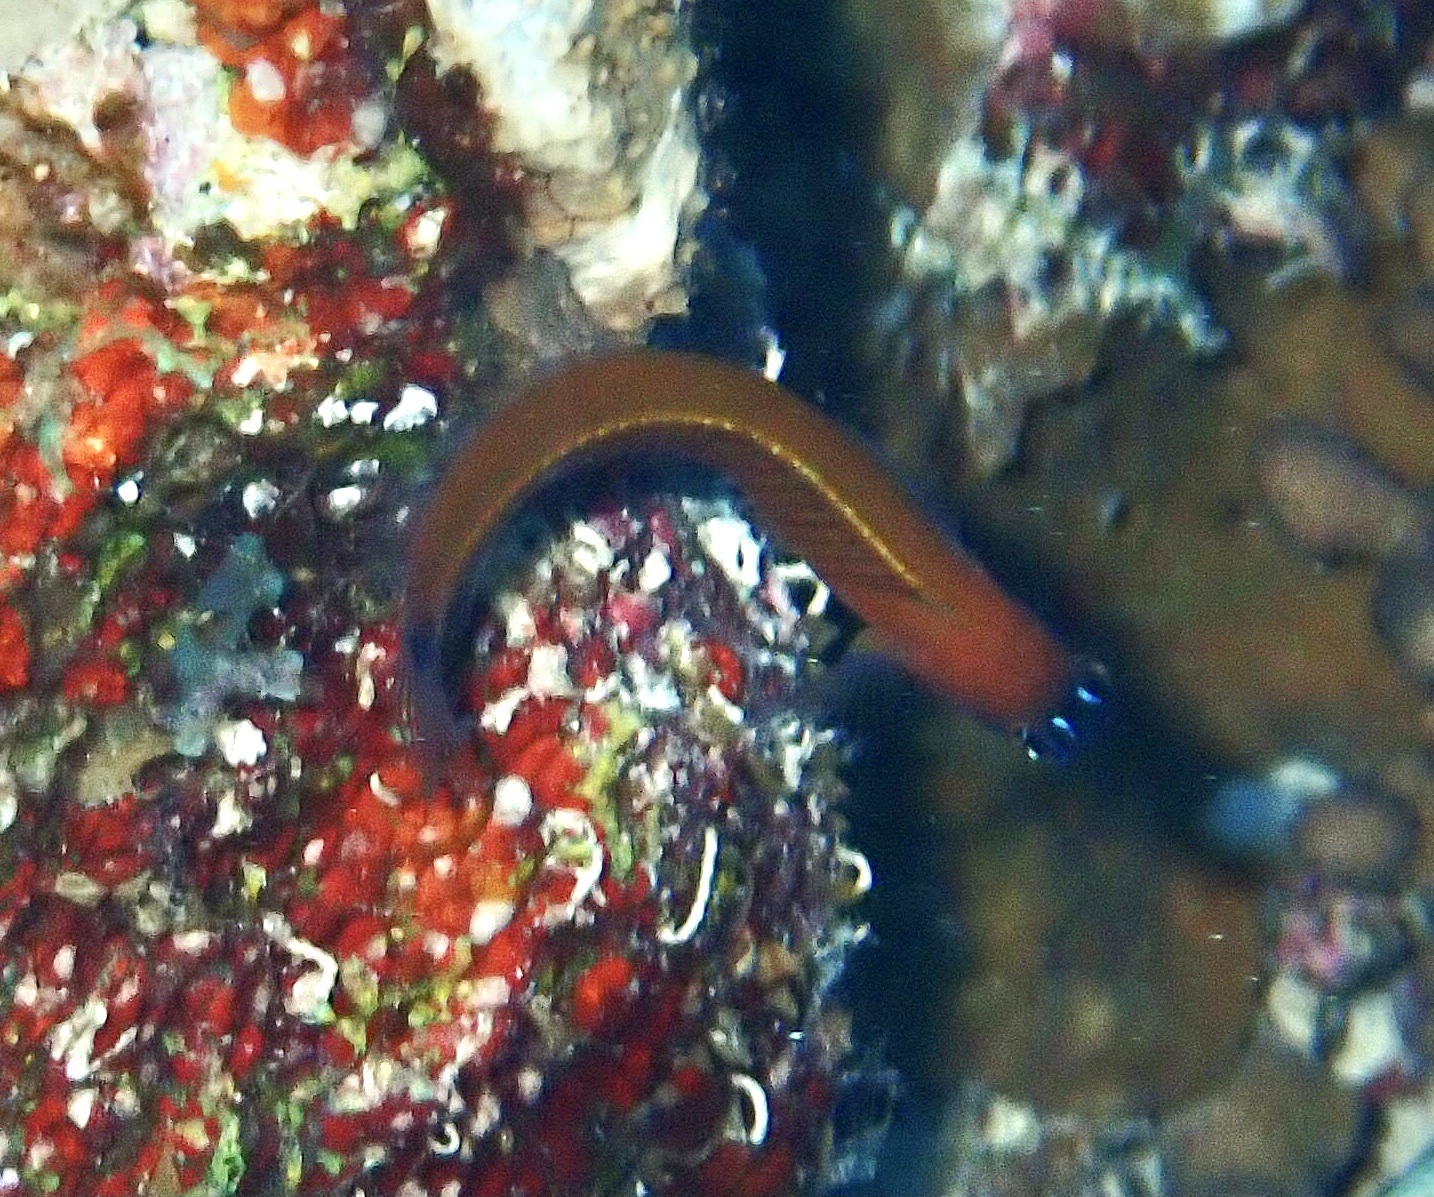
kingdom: Animalia
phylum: Chordata
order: Perciformes
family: Blenniidae
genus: Ecsenius
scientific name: Ecsenius aroni
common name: Aron's blenny
